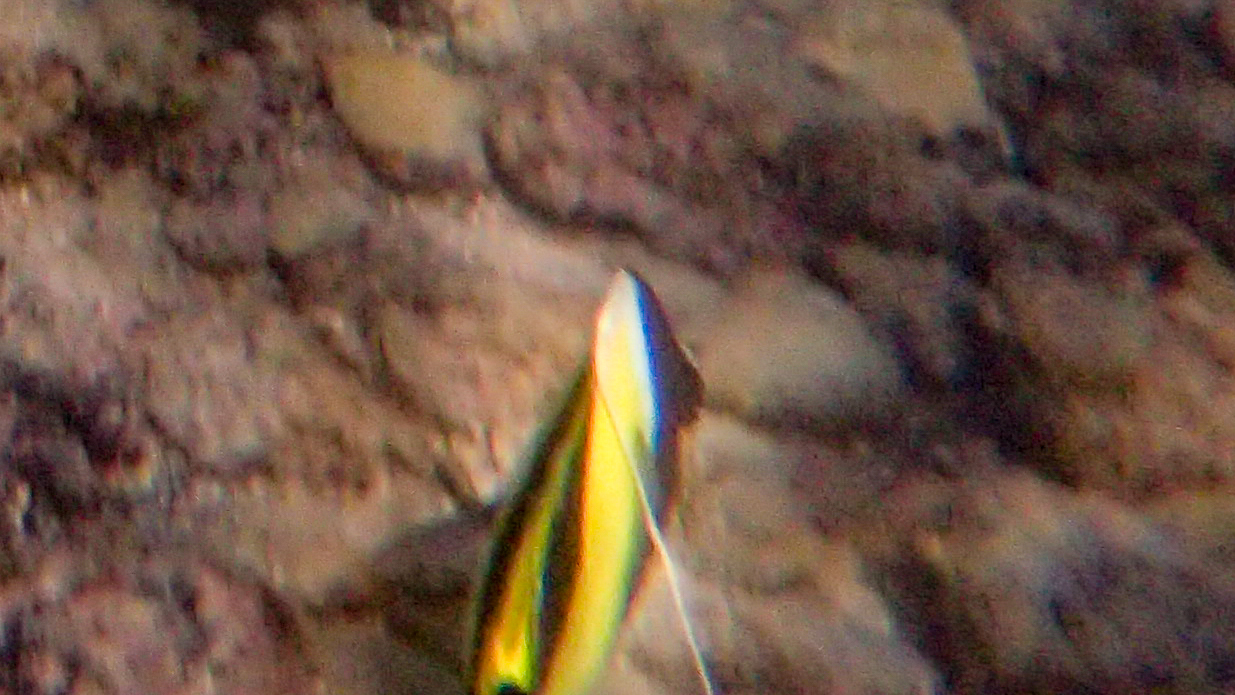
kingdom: Animalia
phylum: Chordata
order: Perciformes
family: Zanclidae
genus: Zanclus
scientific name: Zanclus cornutus
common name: Moorish idol
